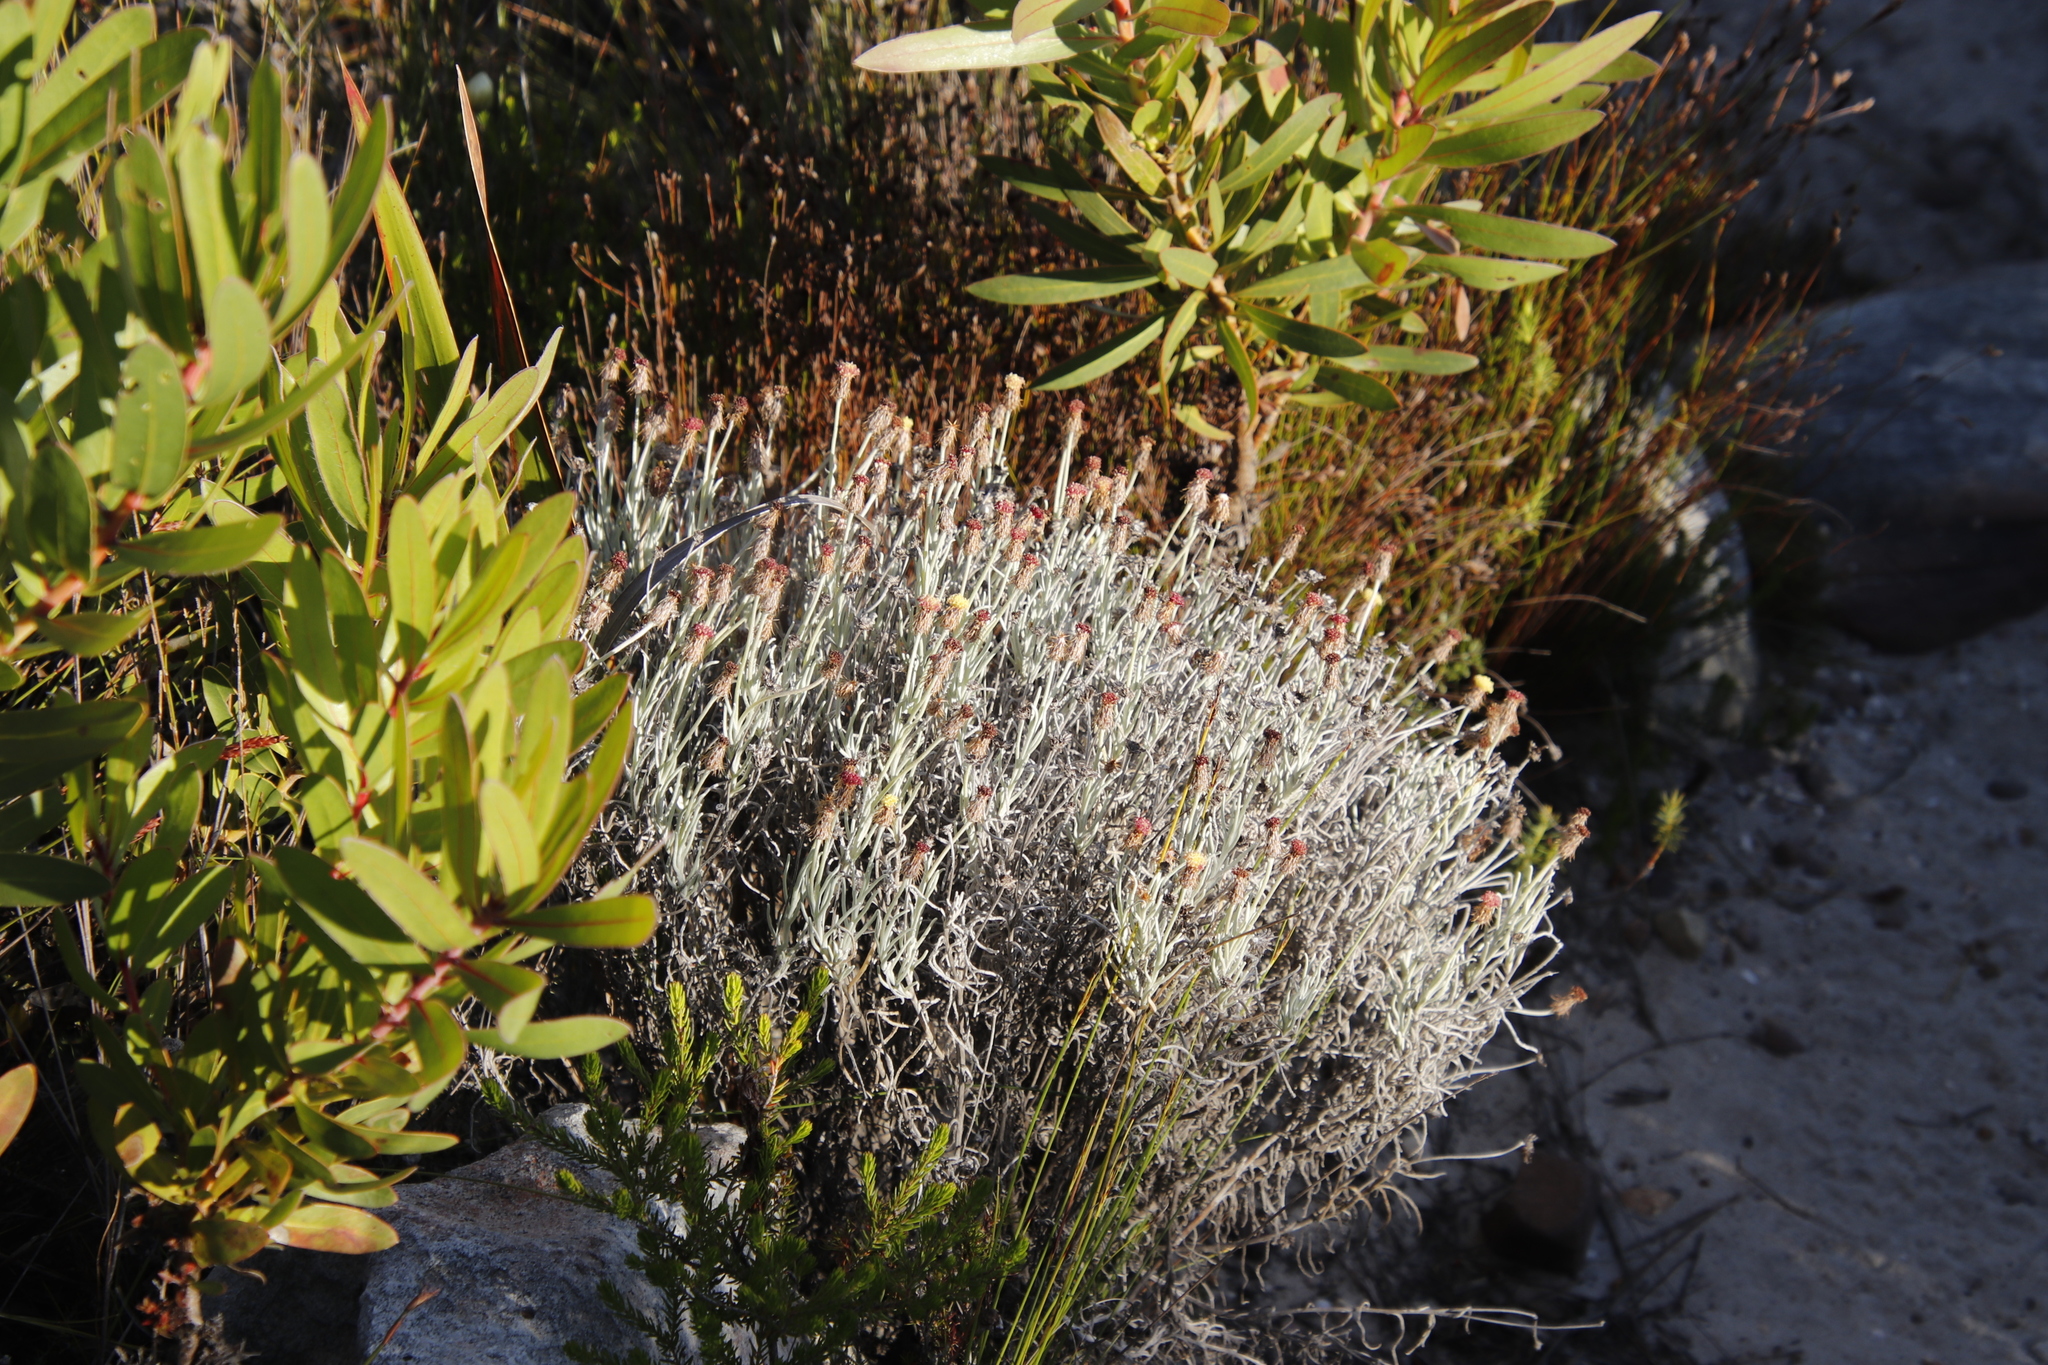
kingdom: Plantae
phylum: Tracheophyta
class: Magnoliopsida
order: Asterales
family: Asteraceae
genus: Syncarpha
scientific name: Syncarpha gnaphaloides
